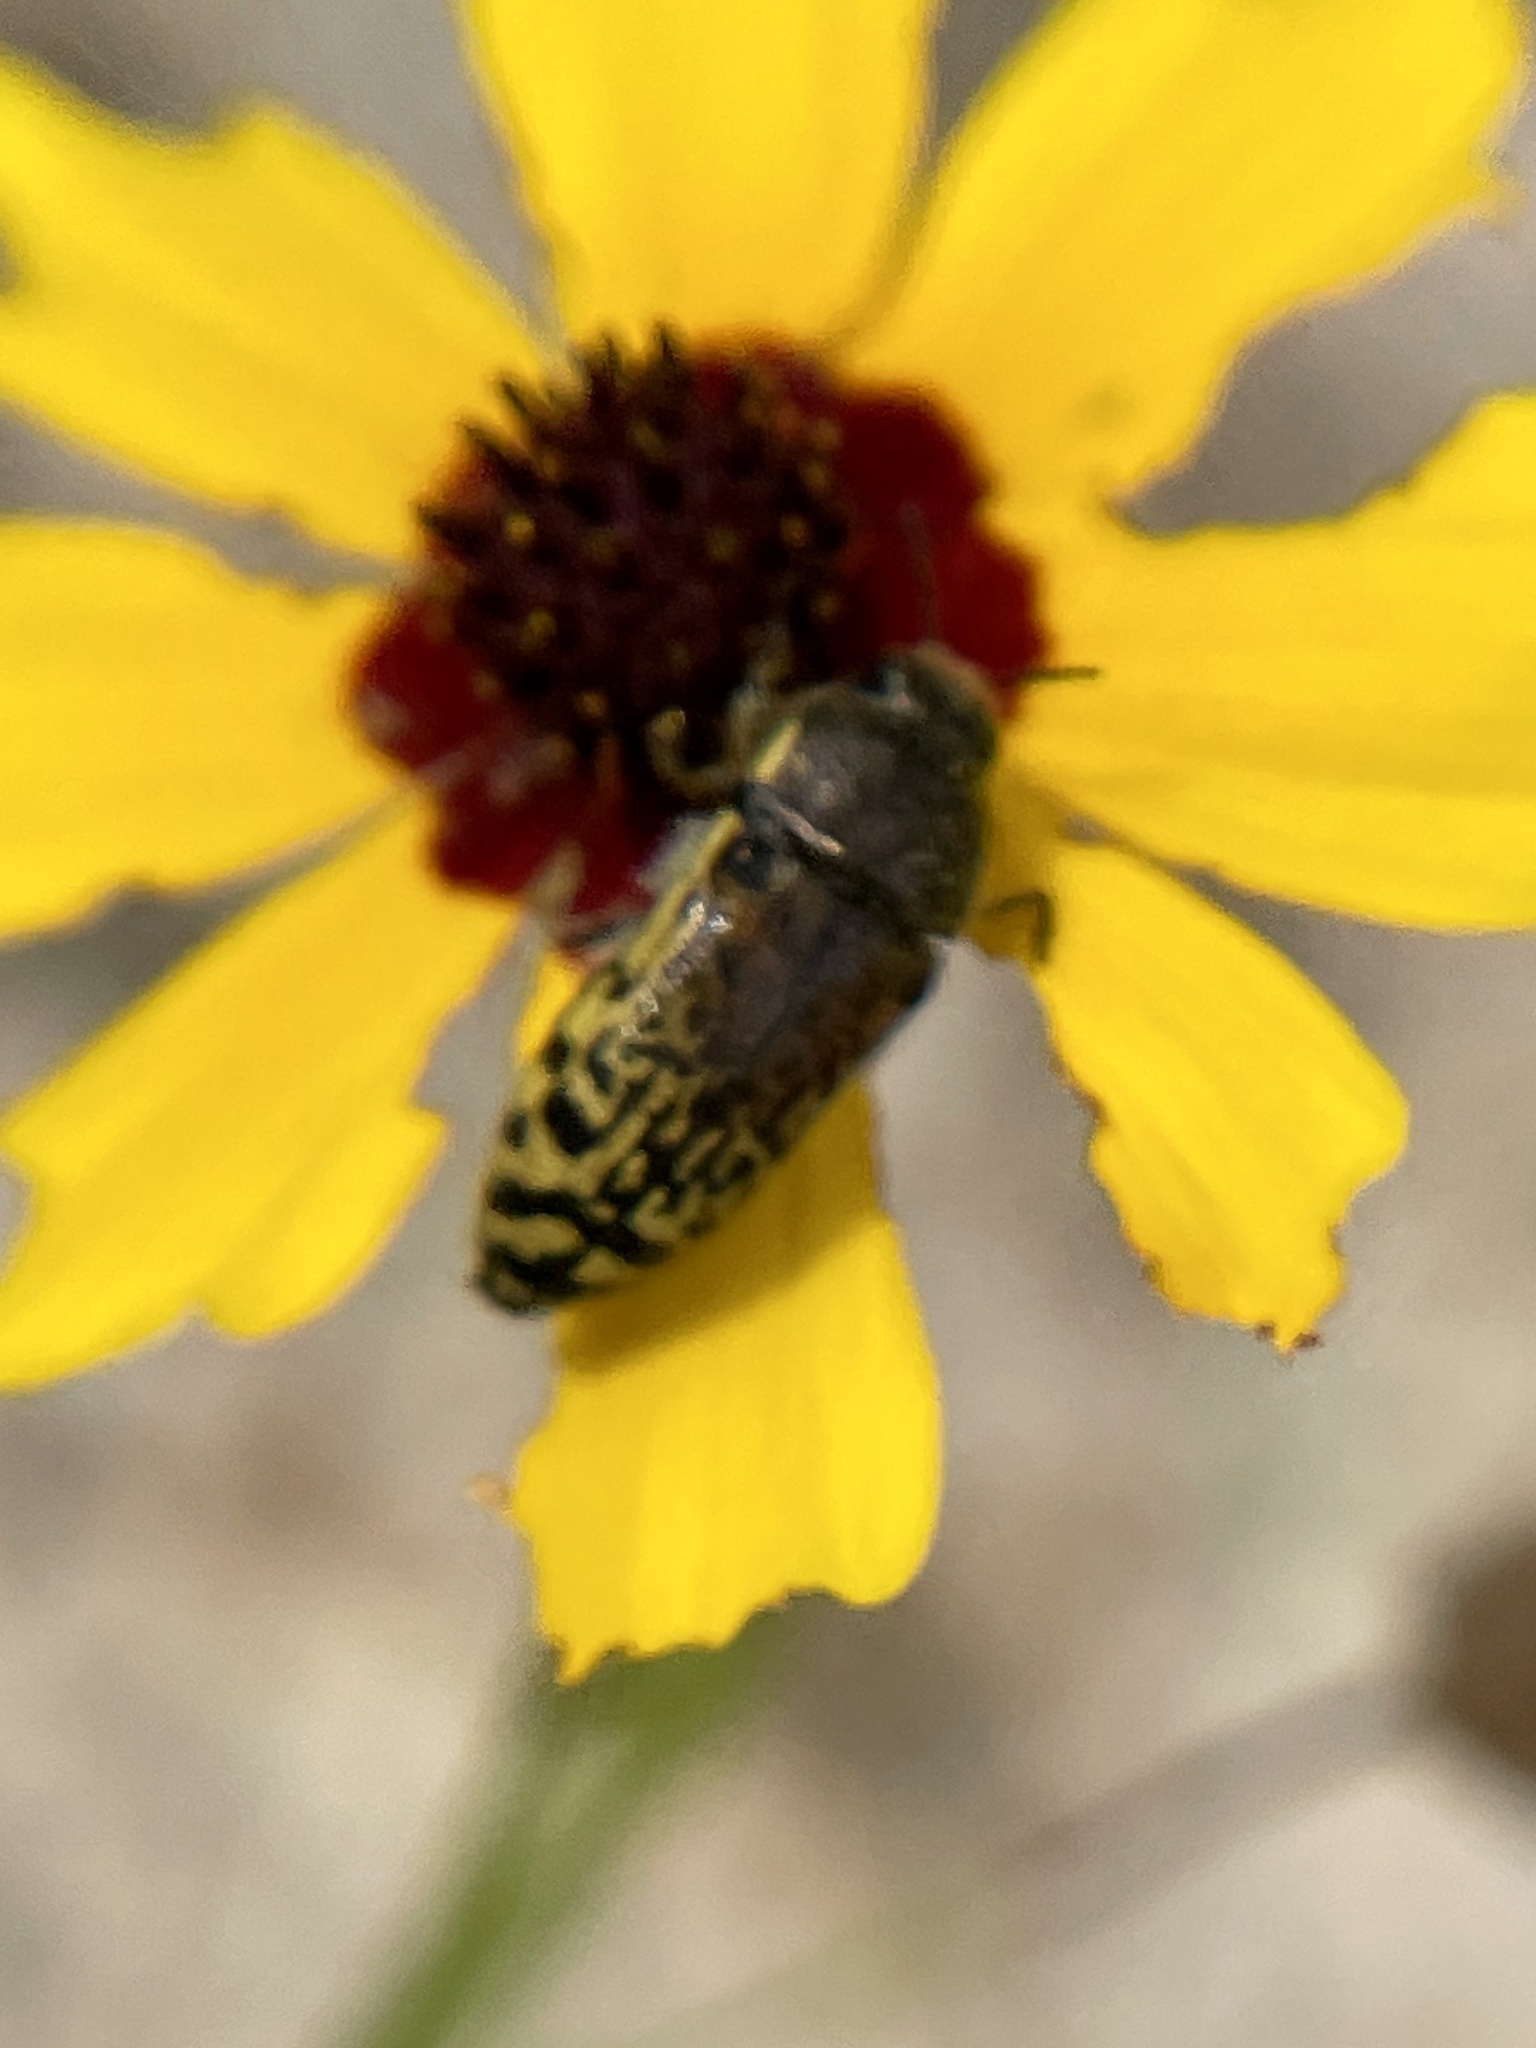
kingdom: Animalia
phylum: Arthropoda
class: Insecta
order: Coleoptera
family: Buprestidae
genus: Acmaeodera
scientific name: Acmaeodera mixta
